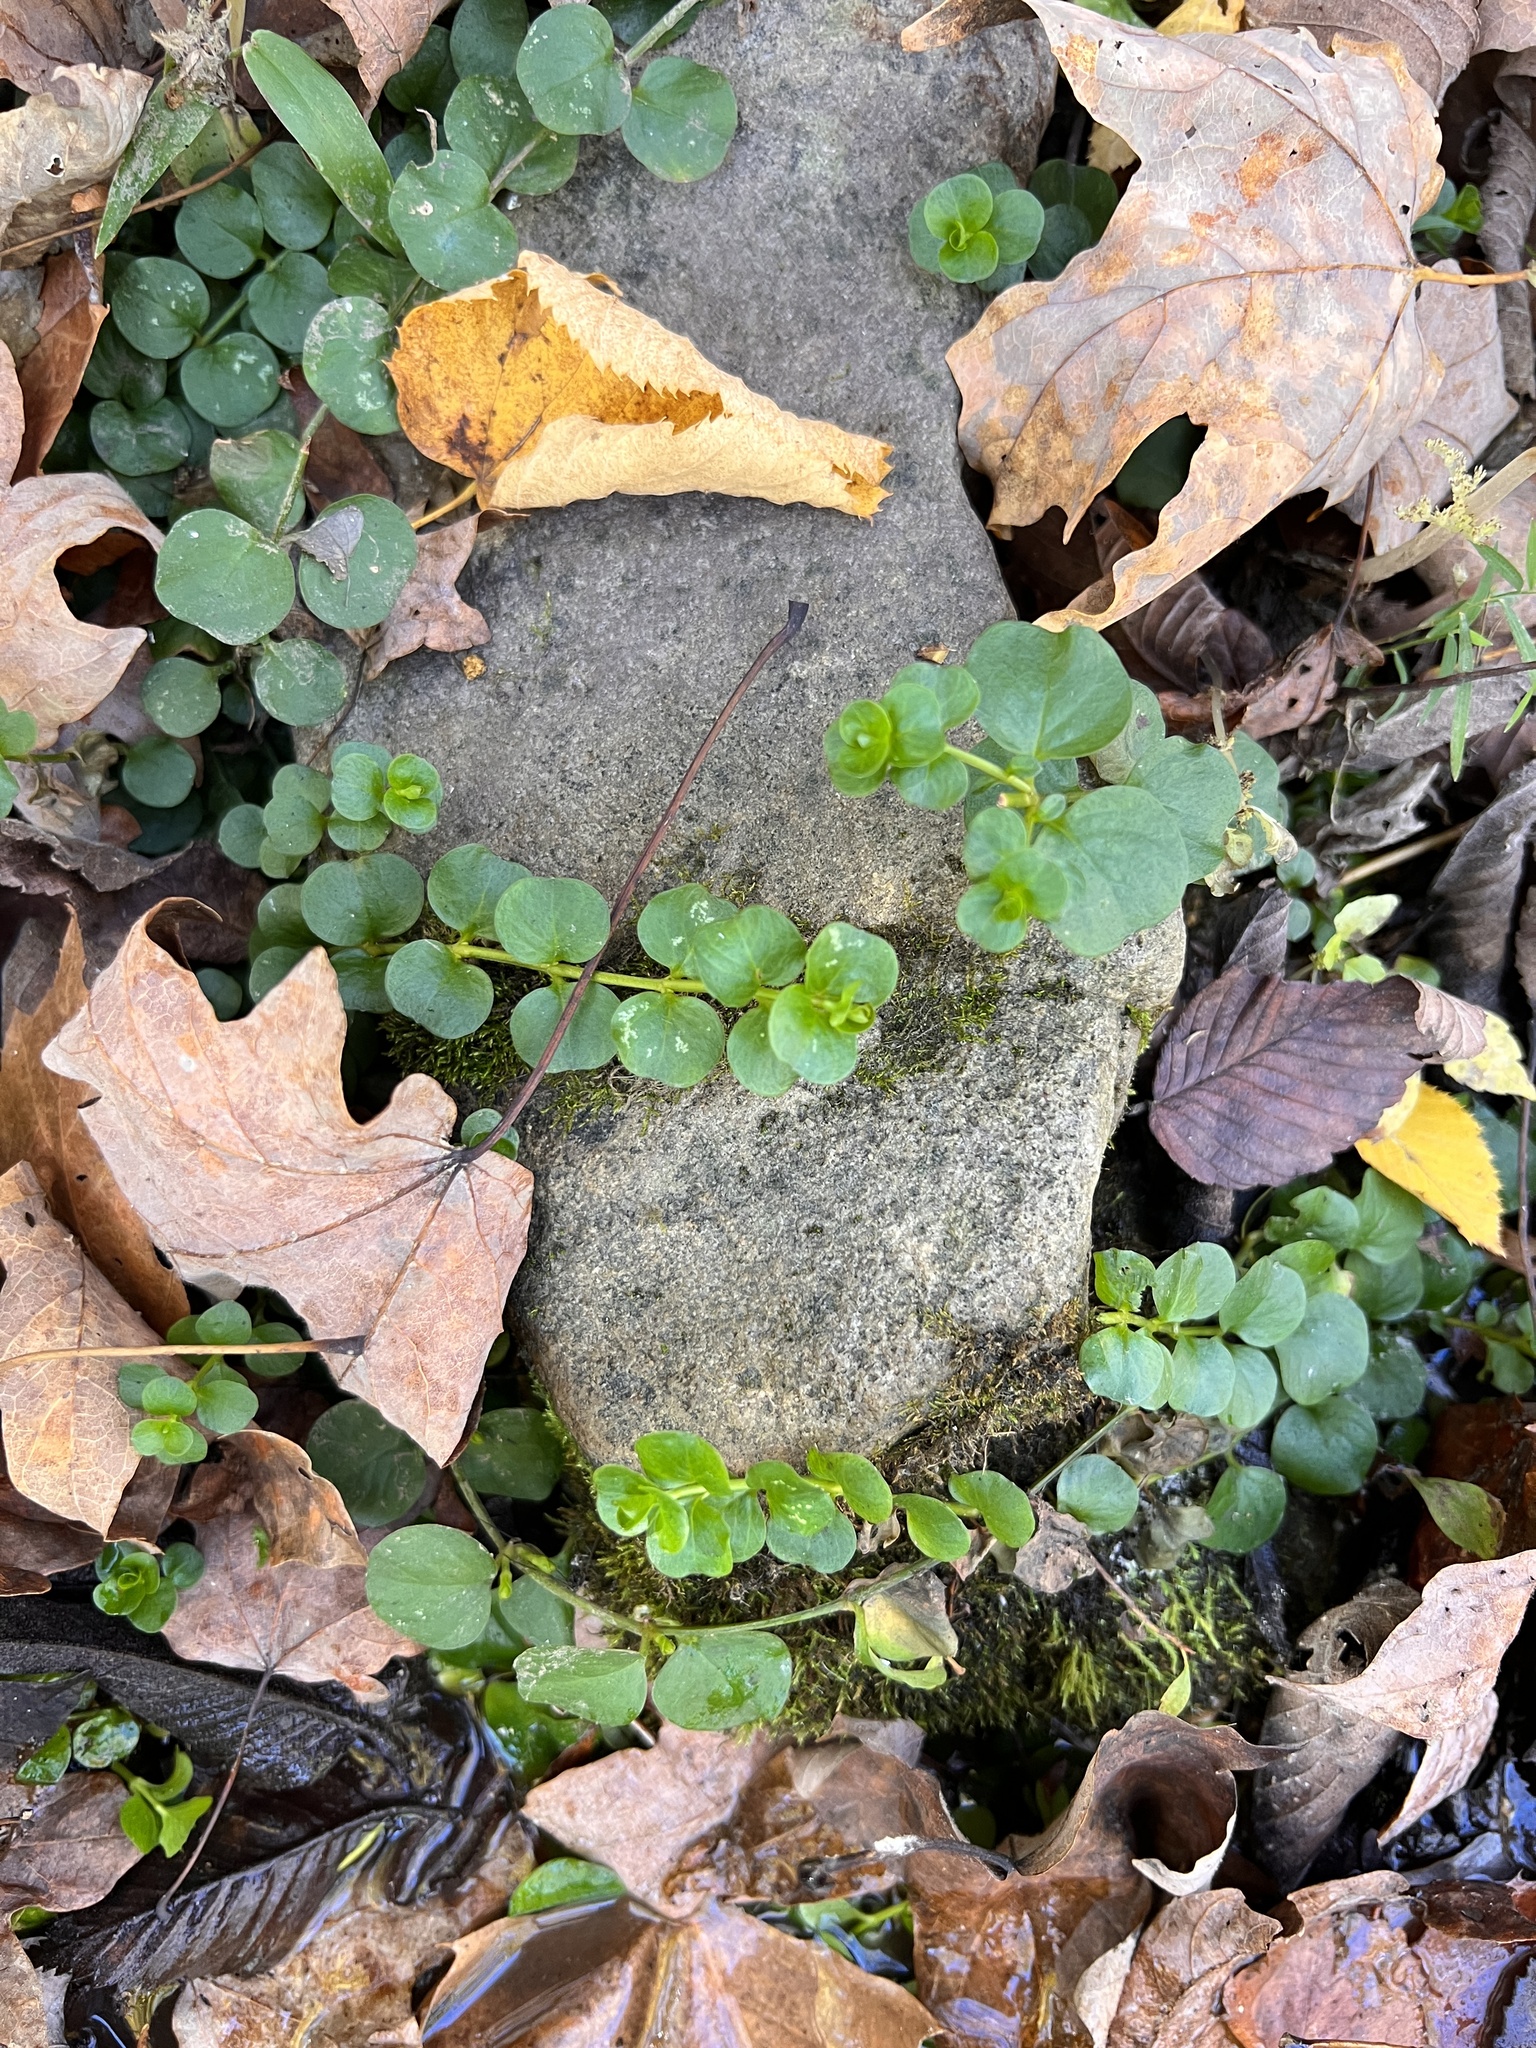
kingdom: Plantae
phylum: Tracheophyta
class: Magnoliopsida
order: Ericales
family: Primulaceae
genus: Lysimachia
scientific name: Lysimachia nummularia
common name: Moneywort
